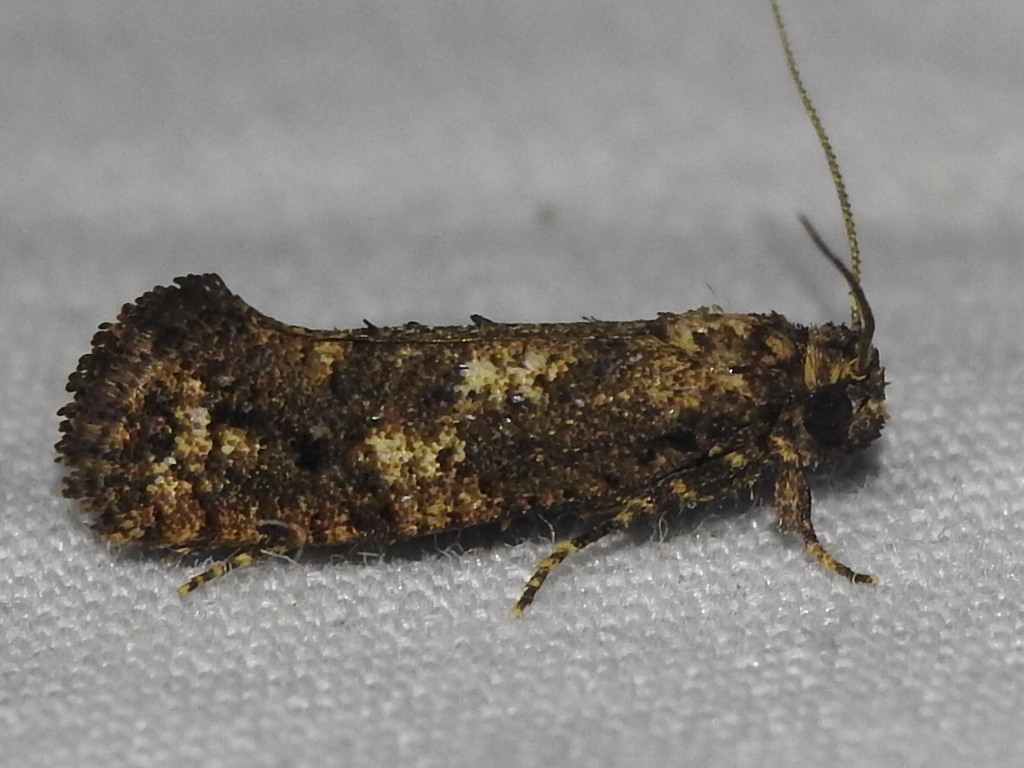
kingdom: Animalia
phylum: Arthropoda
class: Insecta
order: Lepidoptera
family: Tineidae
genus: Acrolophus
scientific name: Acrolophus cressoni
